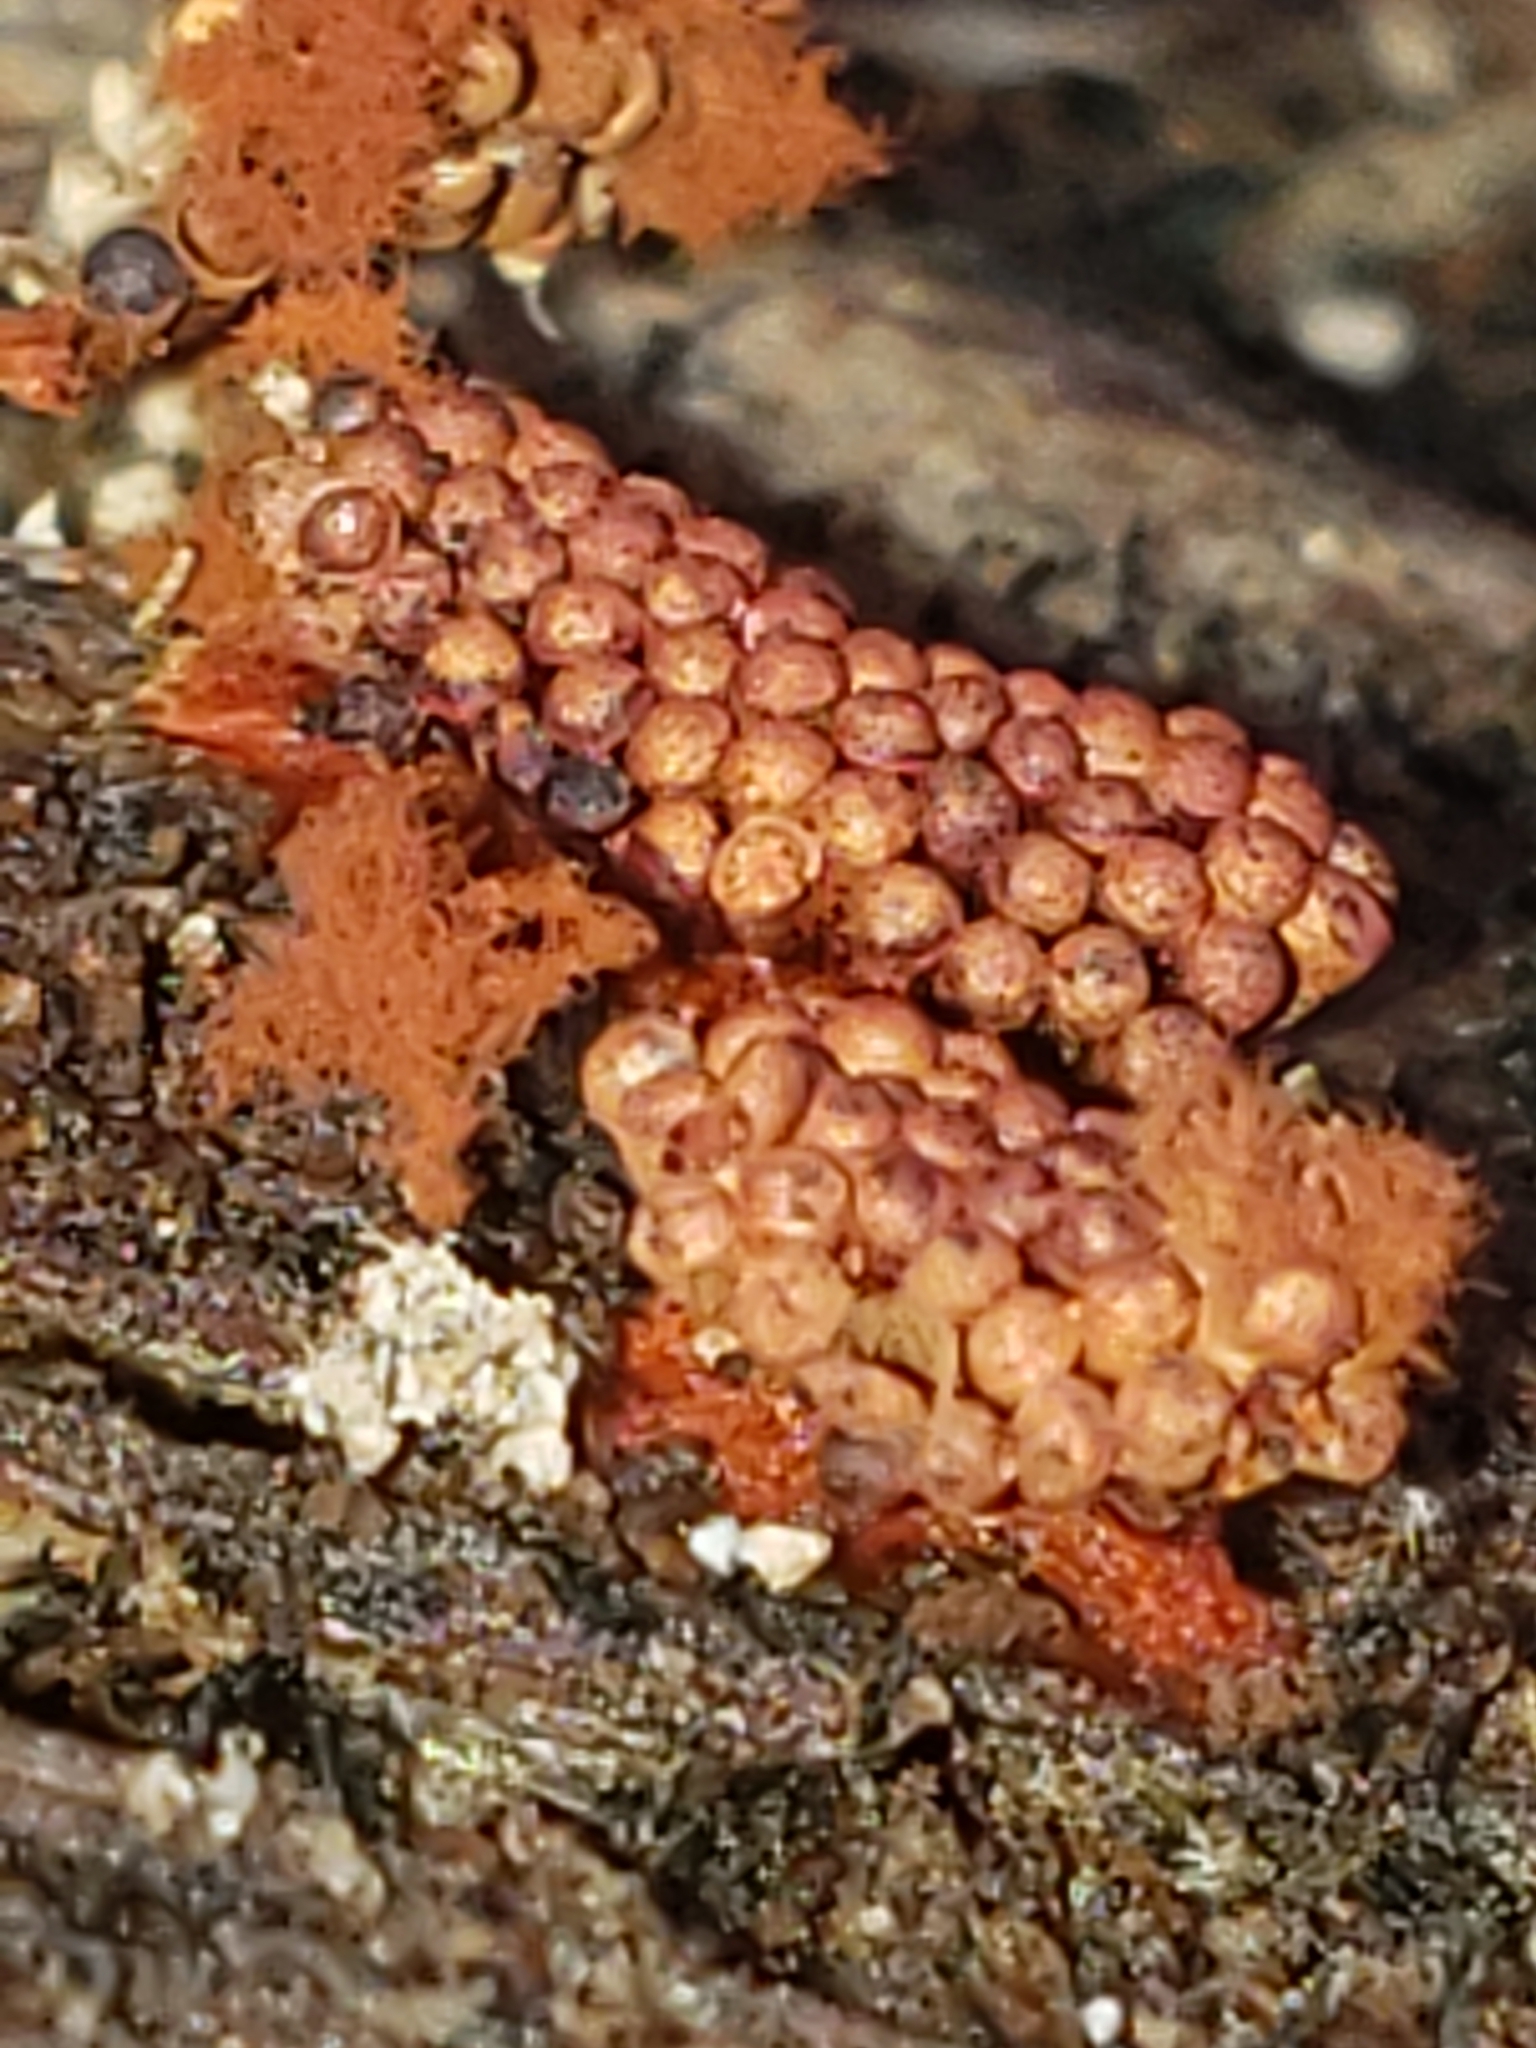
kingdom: Protozoa
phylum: Mycetozoa
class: Myxomycetes
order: Trichiales
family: Trichiaceae
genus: Metatrichia
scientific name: Metatrichia vesparia
